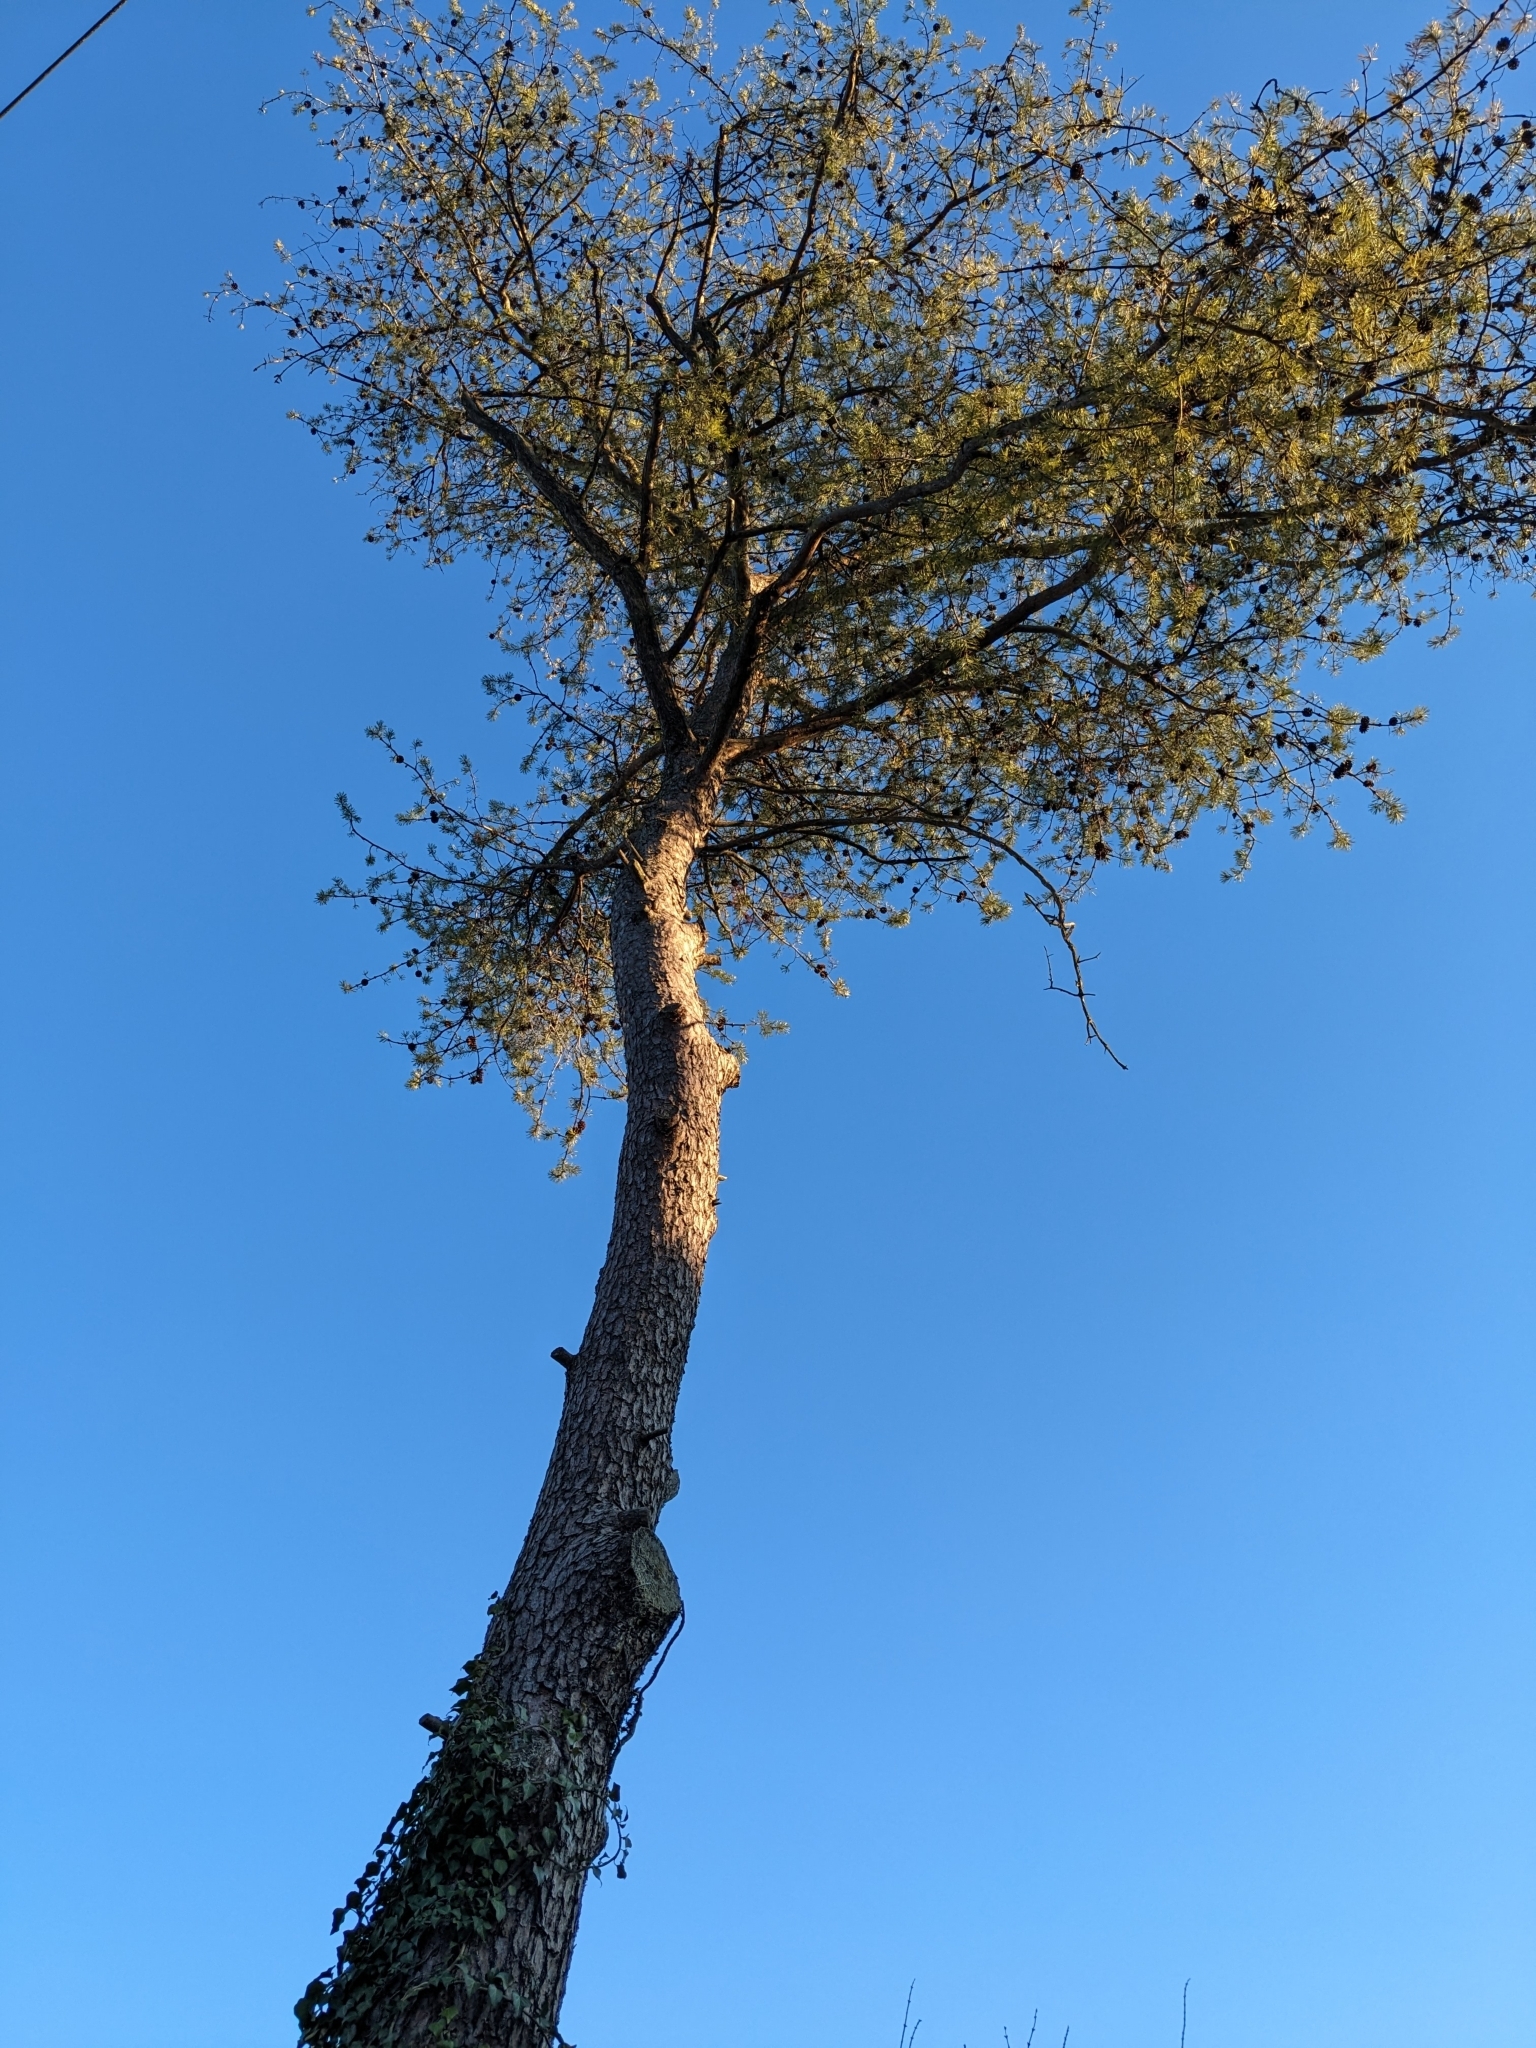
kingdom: Plantae
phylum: Tracheophyta
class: Pinopsida
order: Pinales
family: Pinaceae
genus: Pinus
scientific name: Pinus virginiana
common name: Scrub pine
